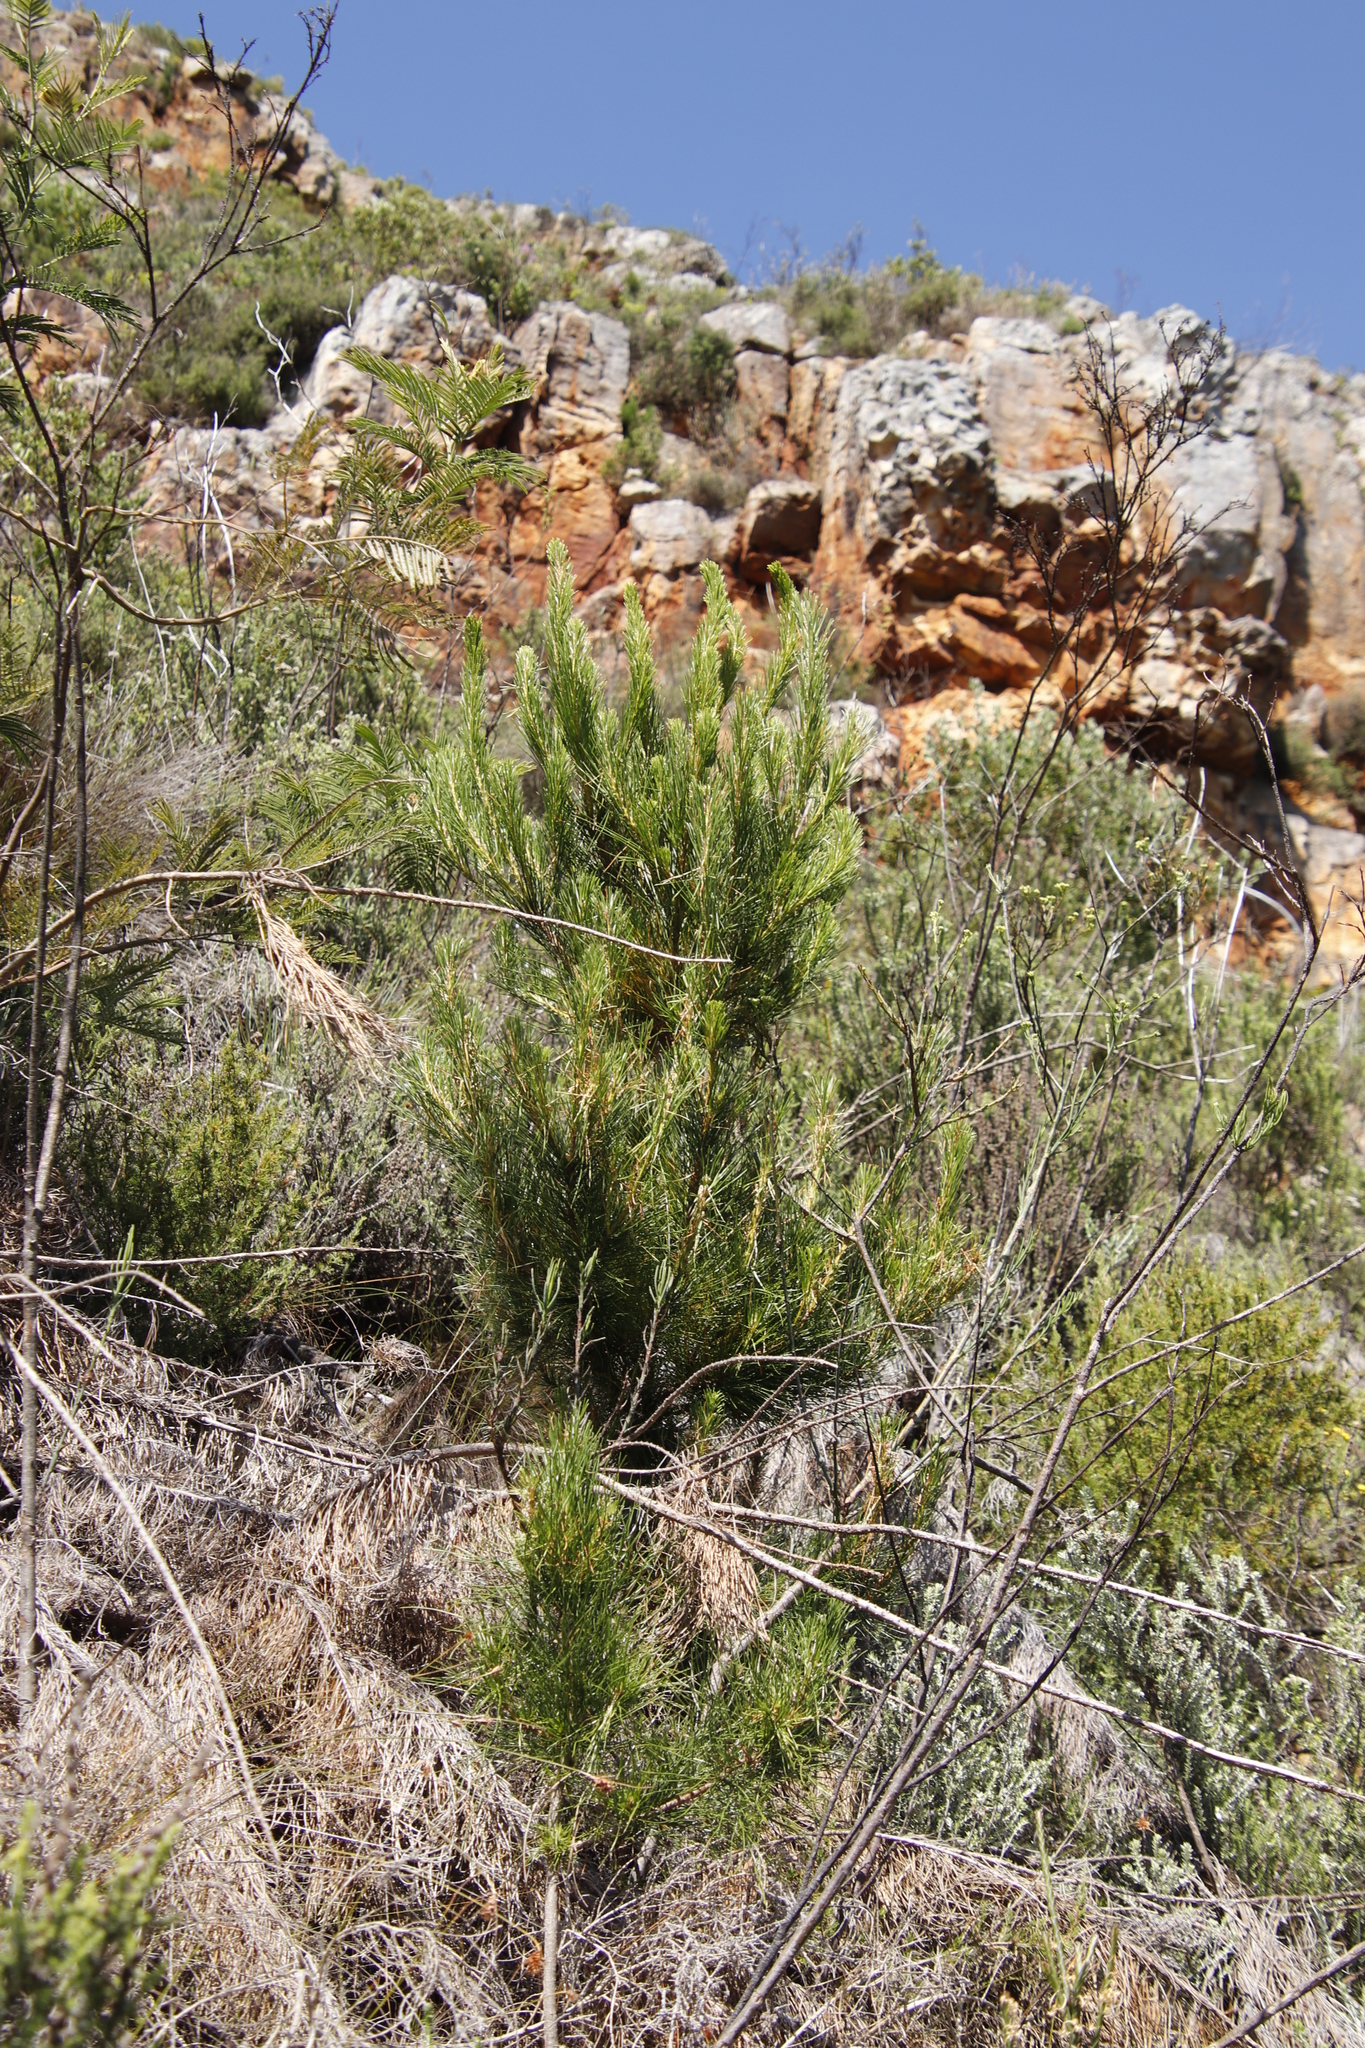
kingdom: Plantae
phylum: Tracheophyta
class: Pinopsida
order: Pinales
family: Pinaceae
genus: Pinus
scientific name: Pinus radiata
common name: Monterey pine
